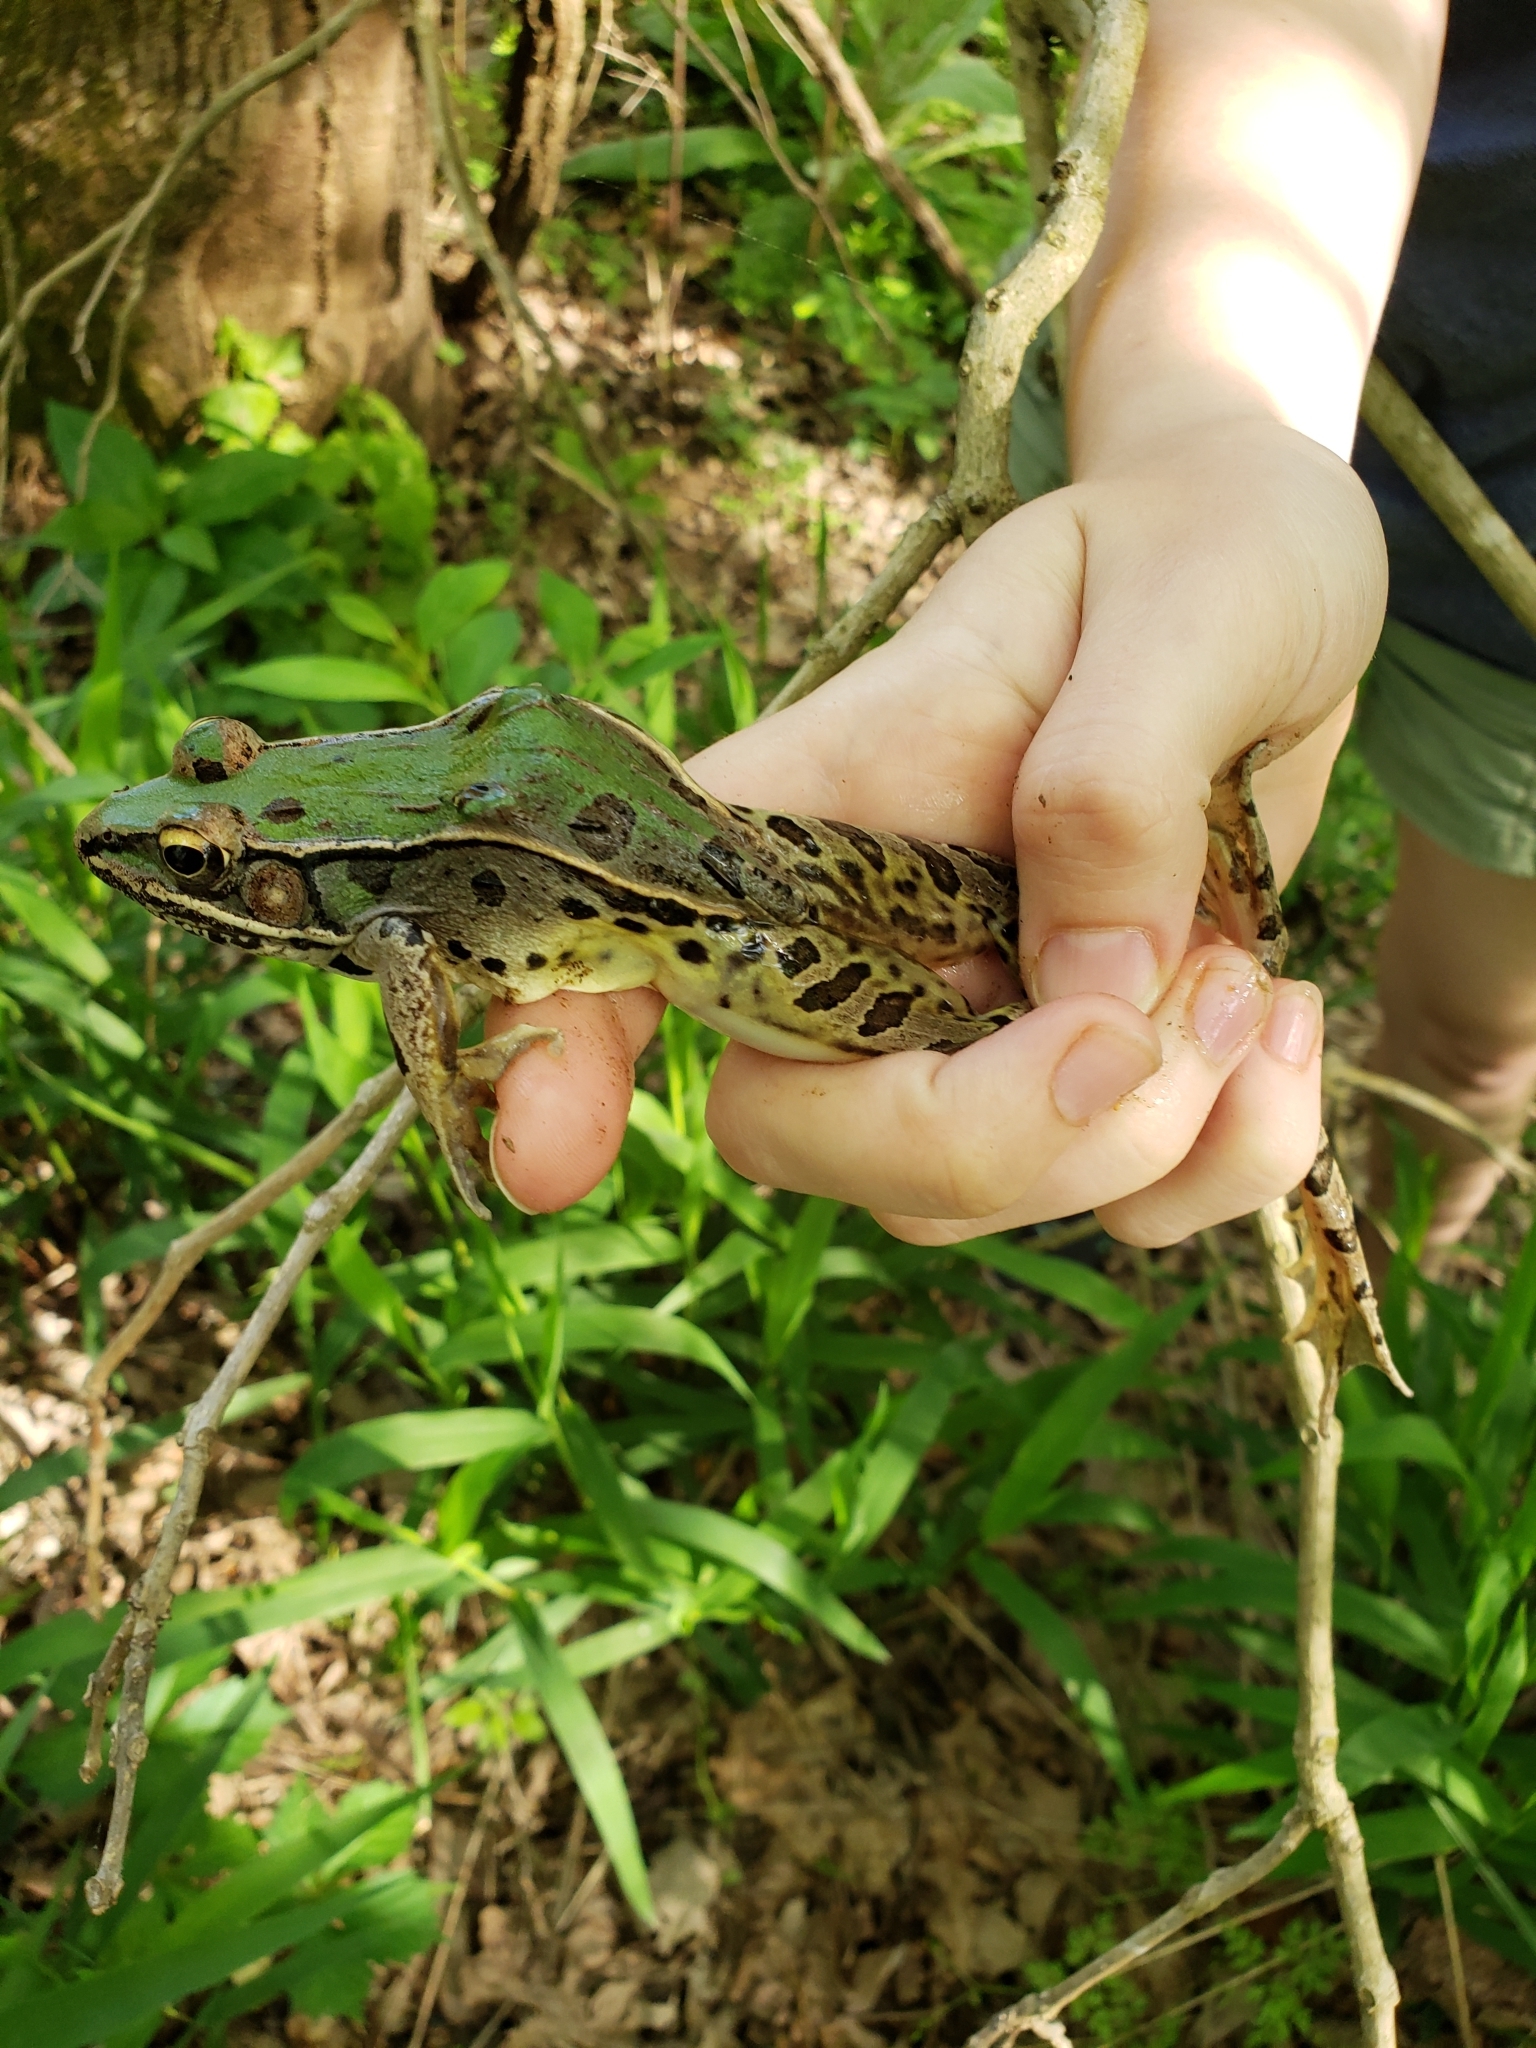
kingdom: Animalia
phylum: Chordata
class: Amphibia
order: Anura
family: Ranidae
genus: Lithobates
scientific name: Lithobates sphenocephalus
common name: Southern leopard frog
